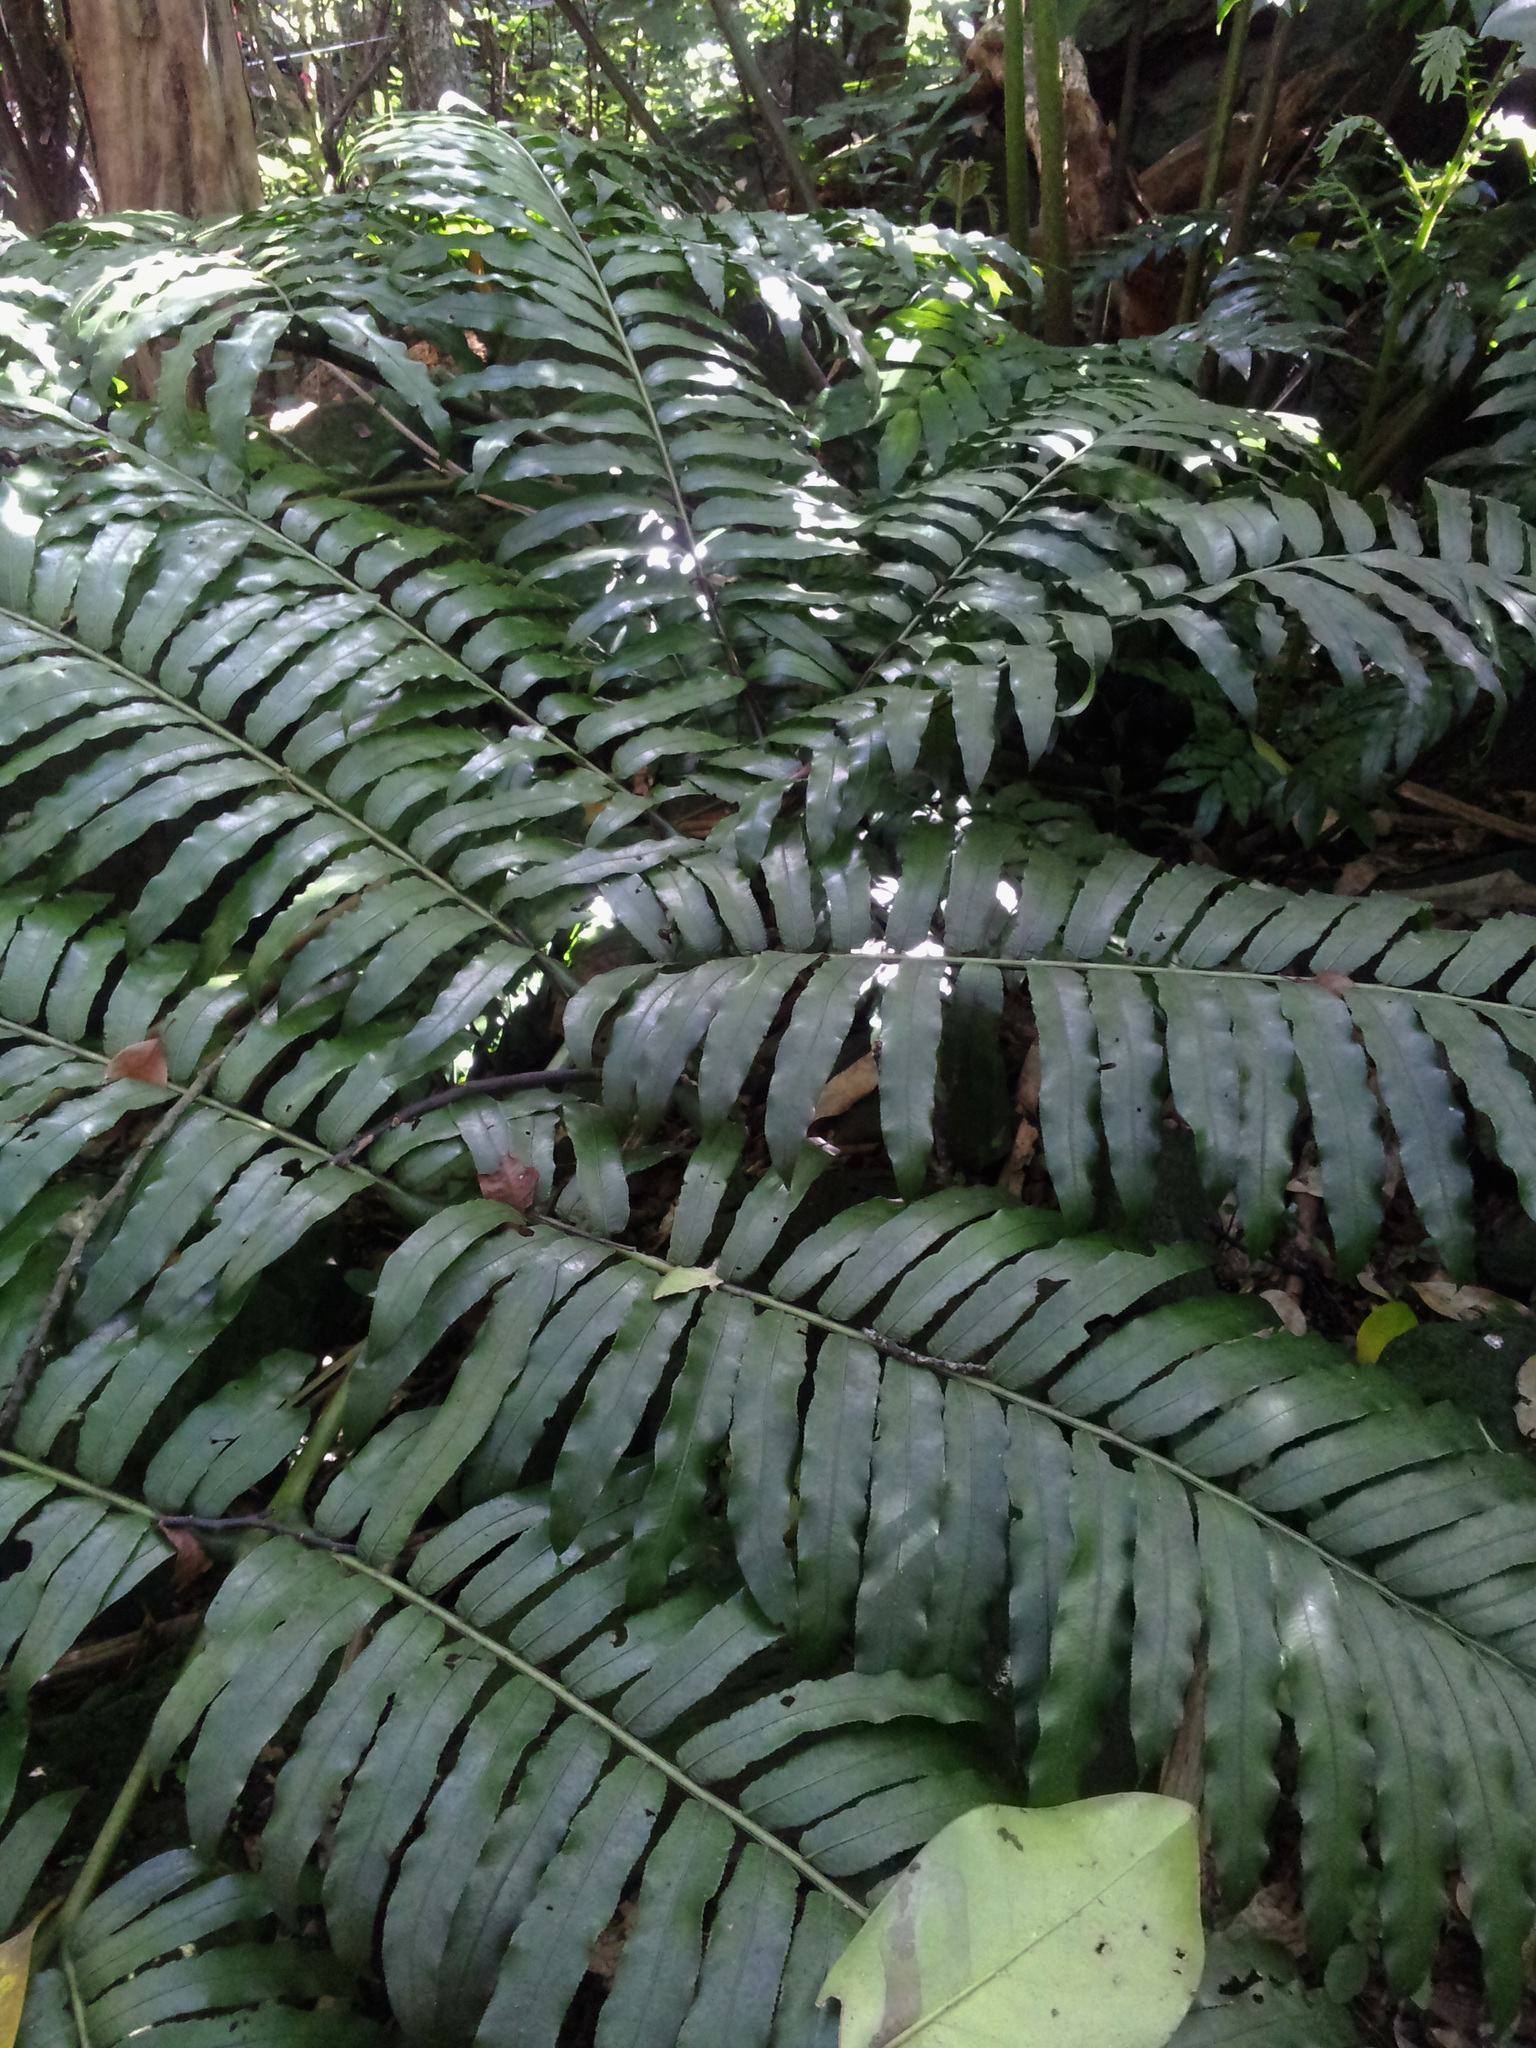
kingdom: Plantae
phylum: Tracheophyta
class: Polypodiopsida
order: Marattiales
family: Marattiaceae
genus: Ptisana
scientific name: Ptisana salicina
